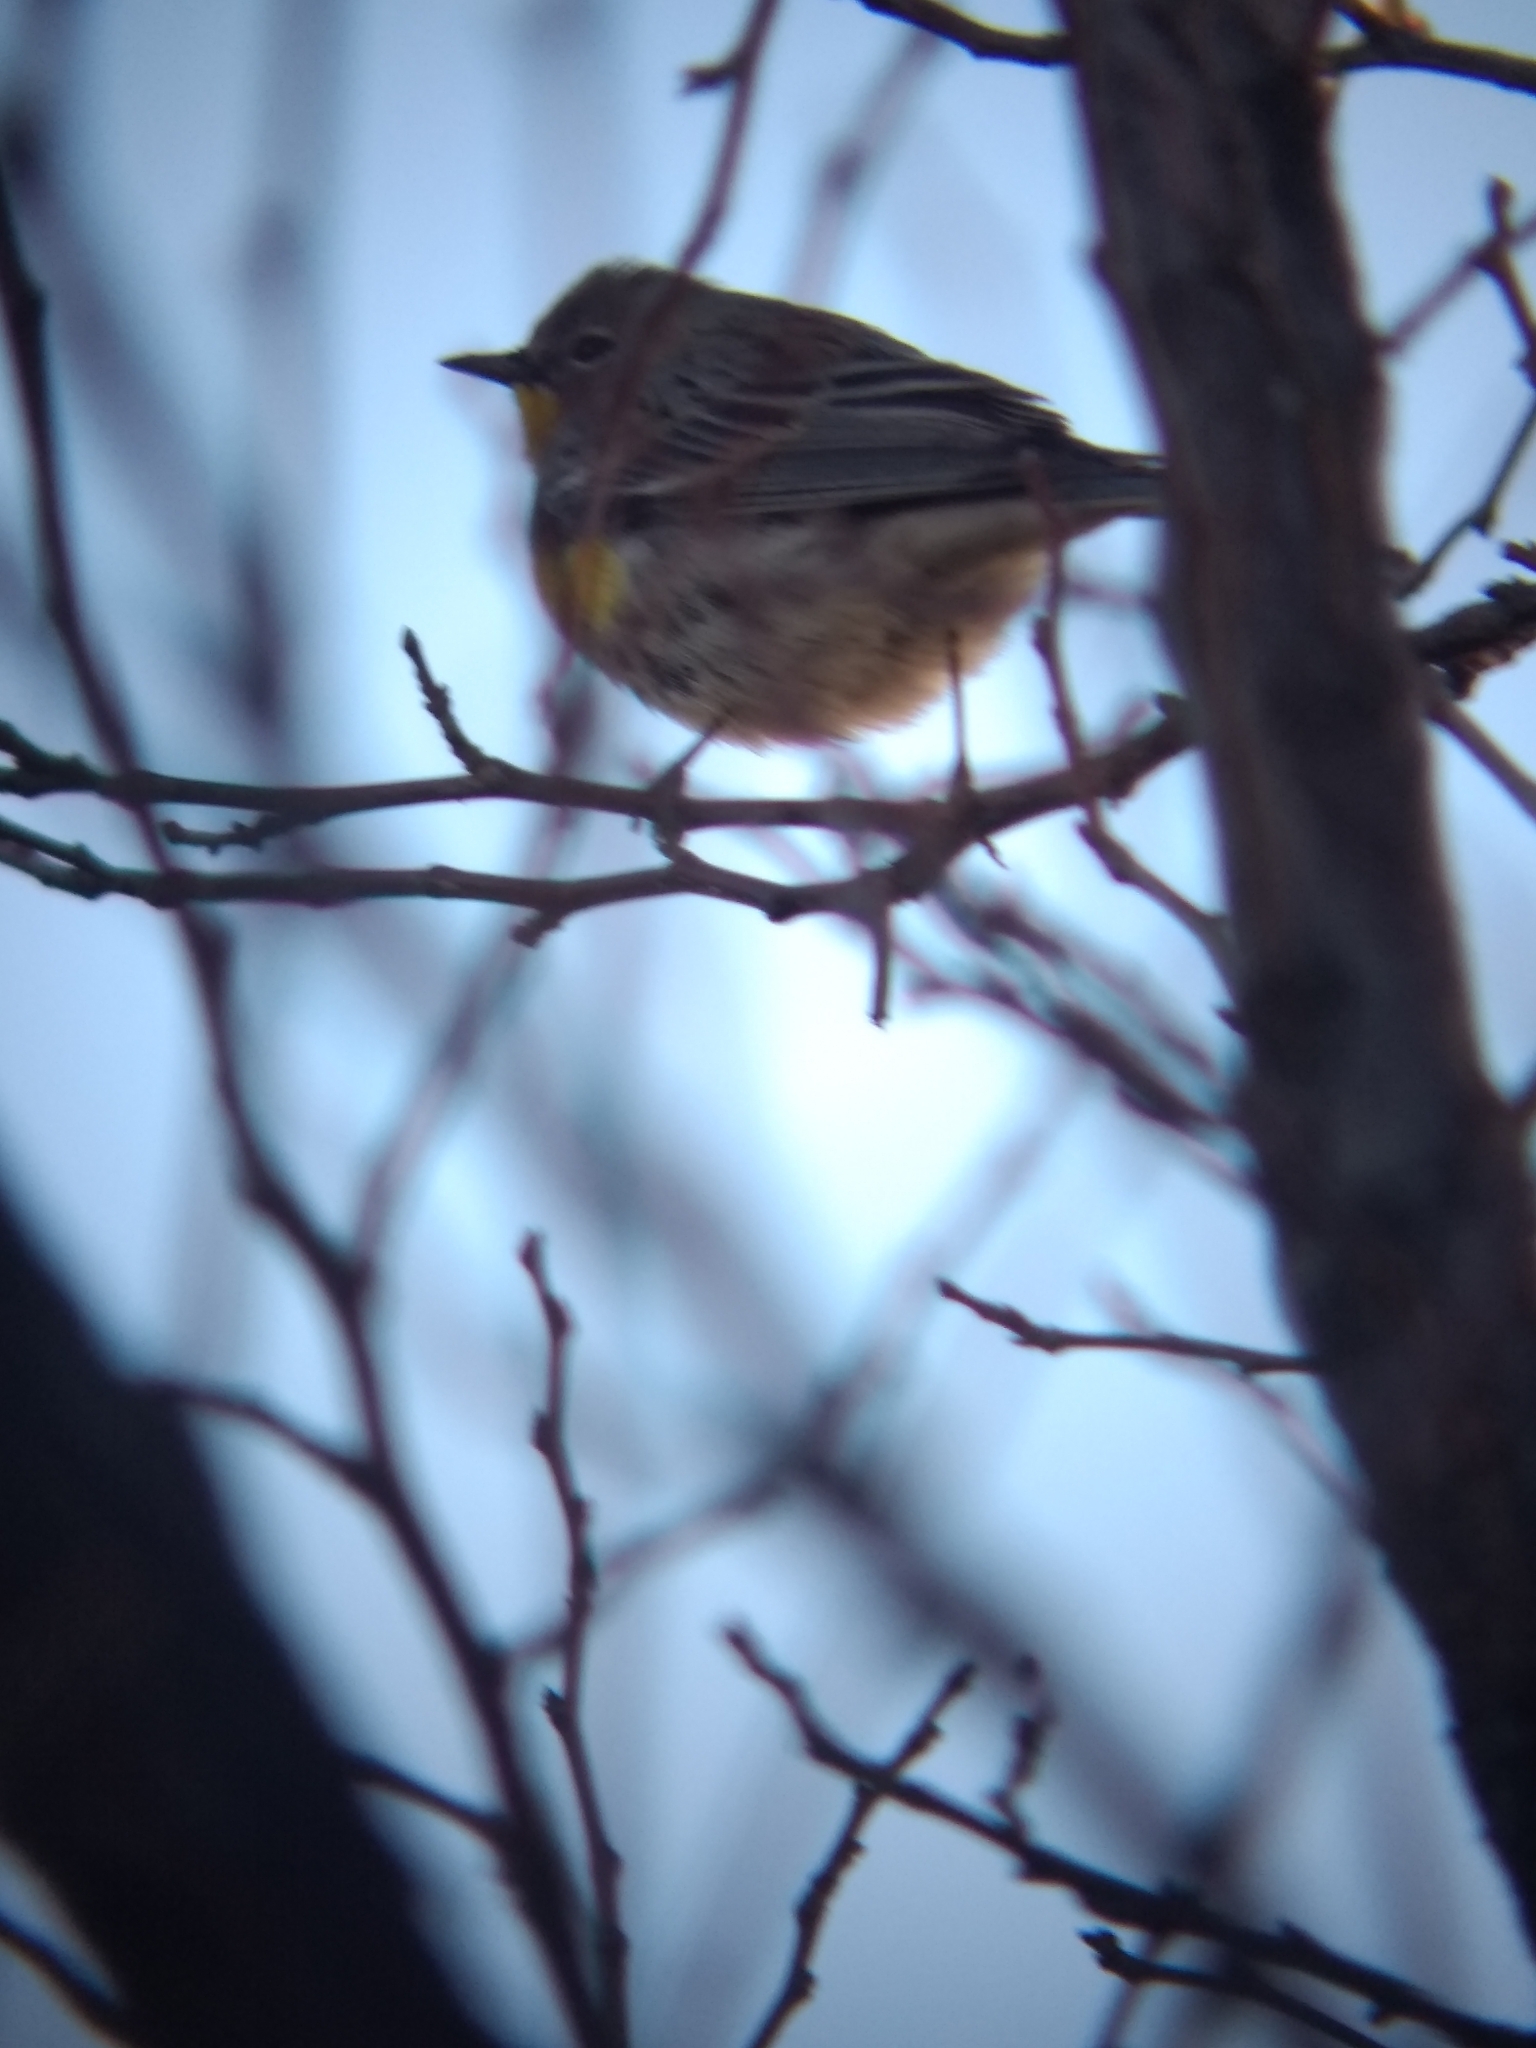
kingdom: Animalia
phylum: Chordata
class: Aves
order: Passeriformes
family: Parulidae
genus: Setophaga
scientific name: Setophaga coronata
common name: Myrtle warbler
